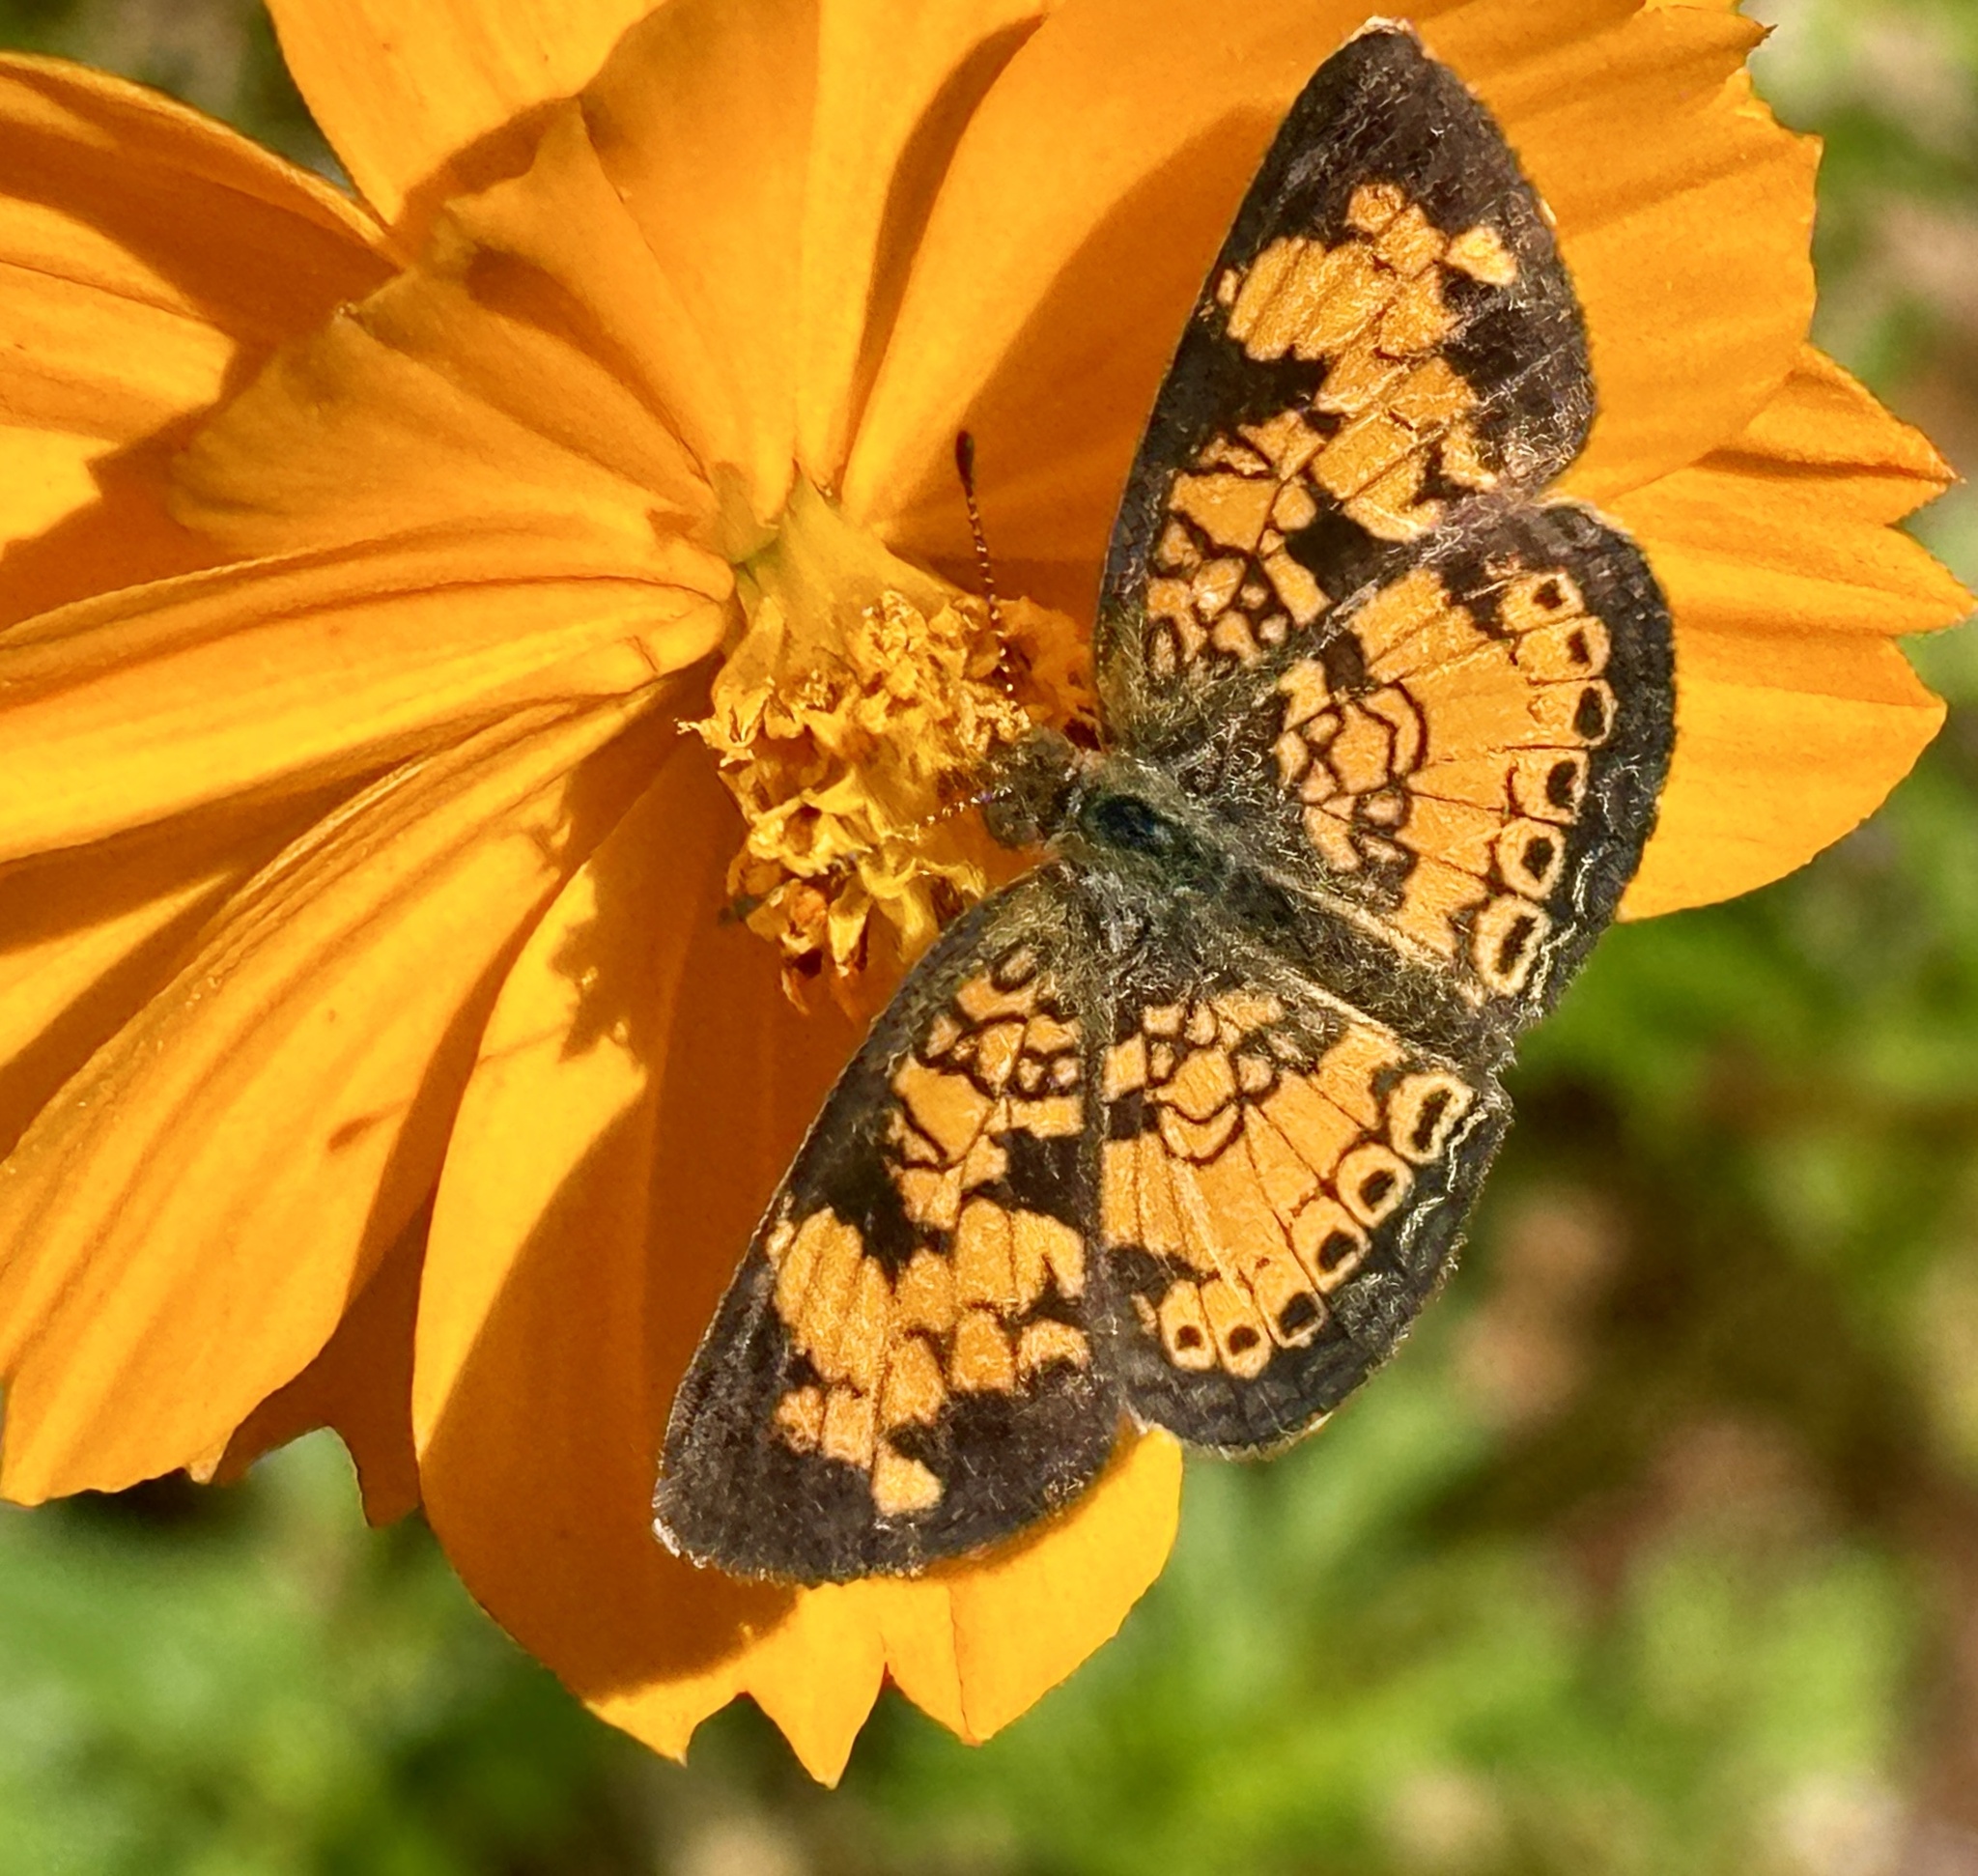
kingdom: Animalia
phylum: Arthropoda
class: Insecta
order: Lepidoptera
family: Nymphalidae
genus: Phyciodes
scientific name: Phyciodes tharos
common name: Pearl crescent
